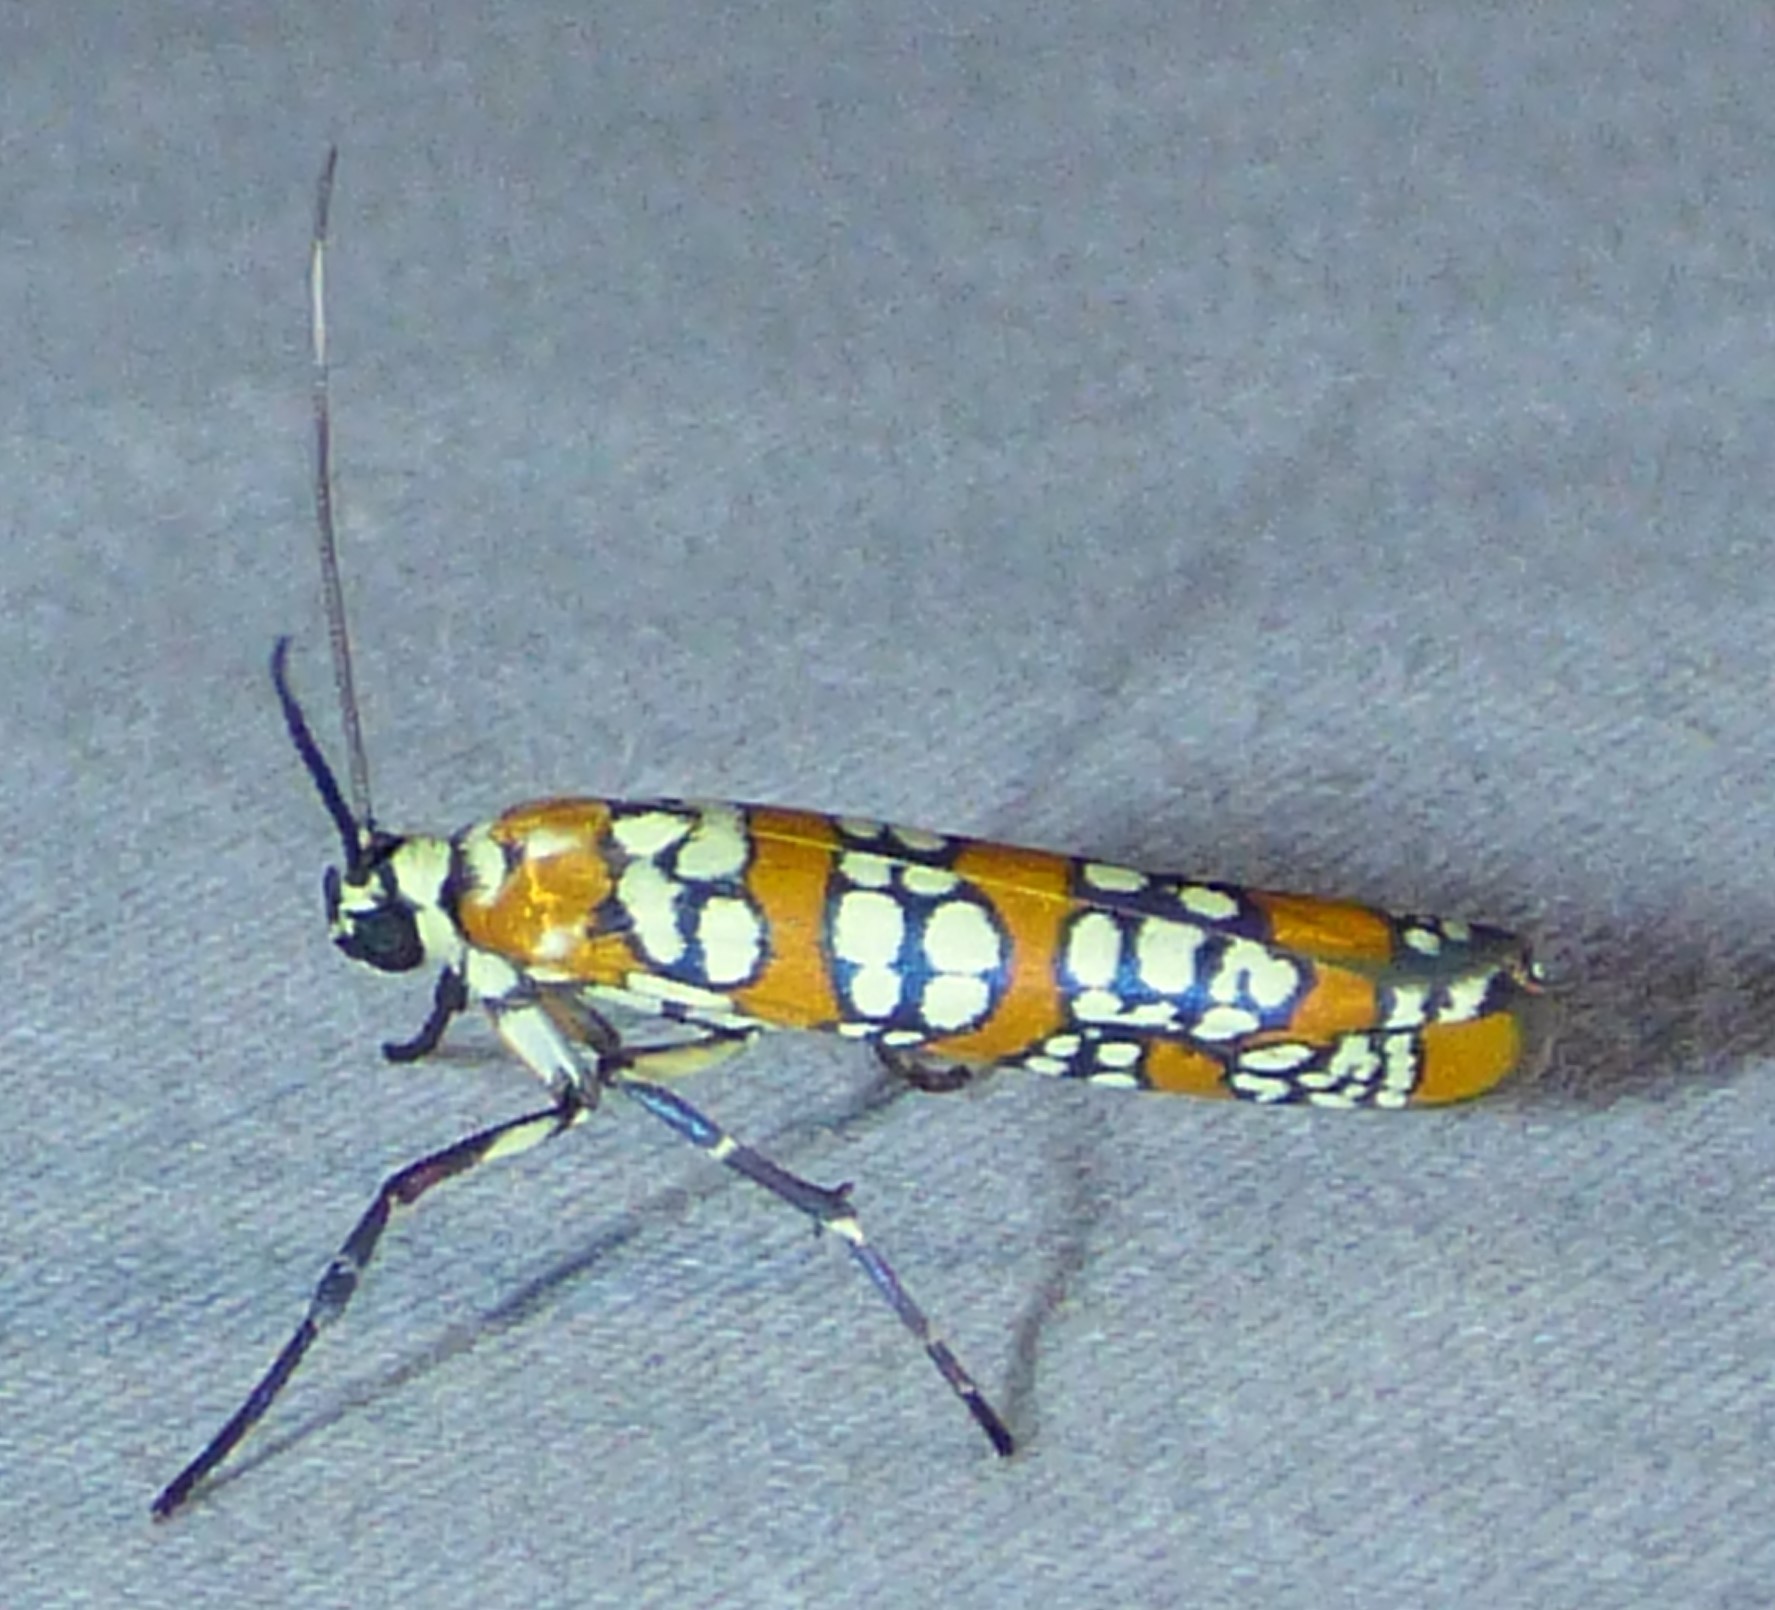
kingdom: Animalia
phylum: Arthropoda
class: Insecta
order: Lepidoptera
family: Attevidae
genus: Atteva
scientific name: Atteva punctella
